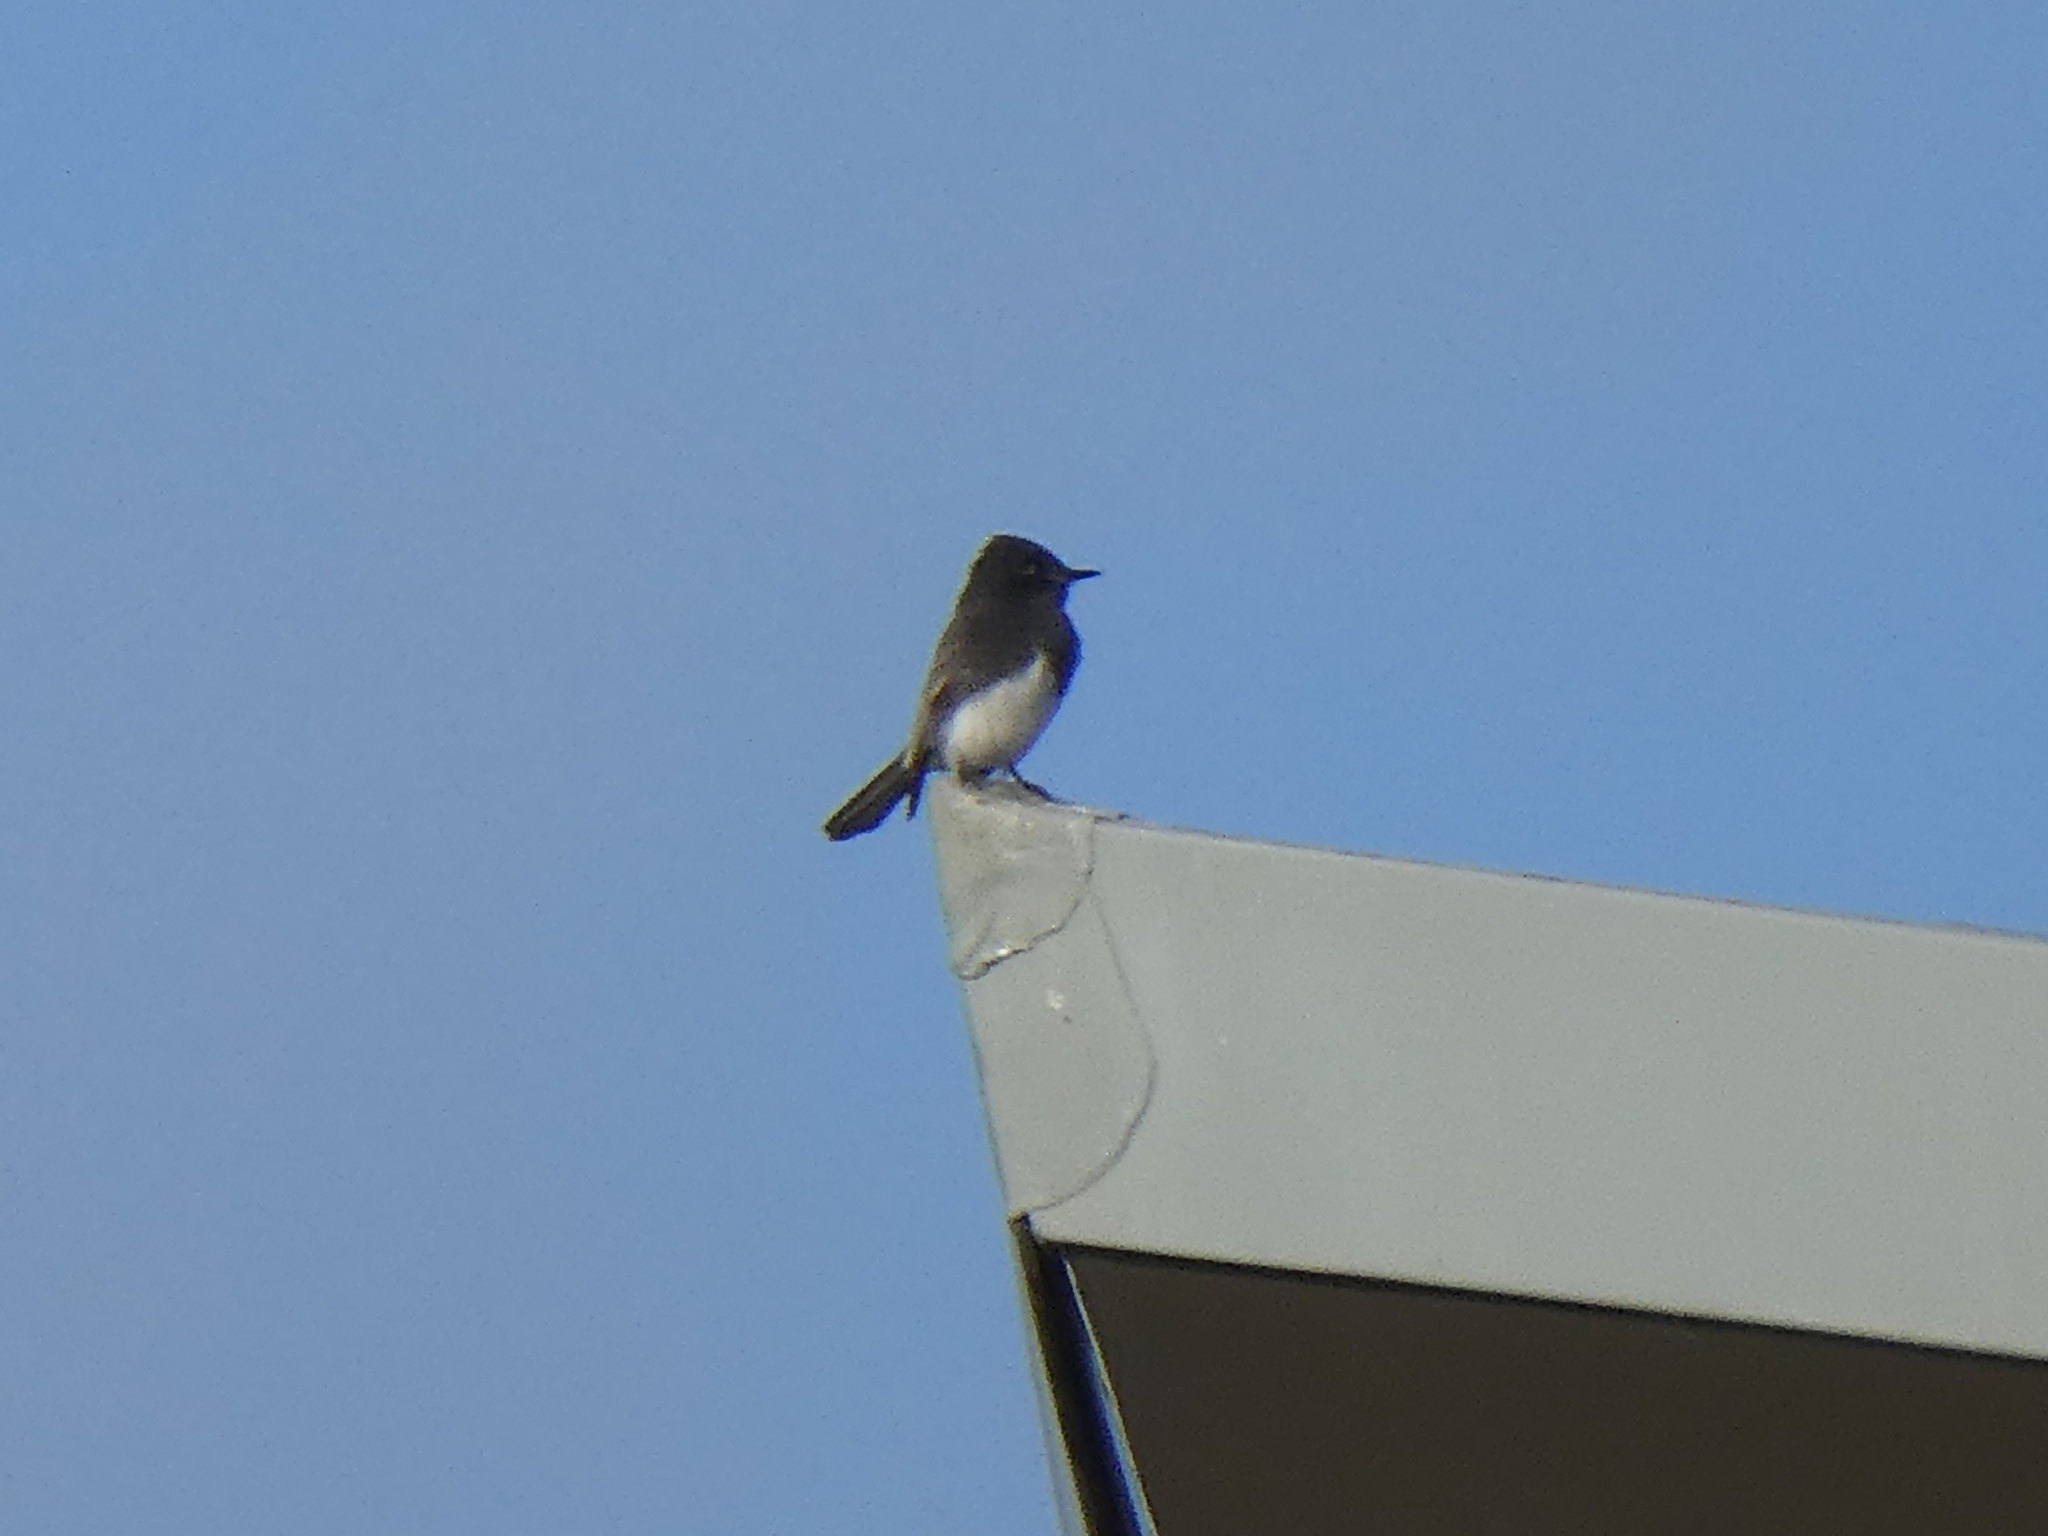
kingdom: Animalia
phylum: Chordata
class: Aves
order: Passeriformes
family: Tyrannidae
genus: Sayornis
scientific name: Sayornis nigricans
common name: Black phoebe
